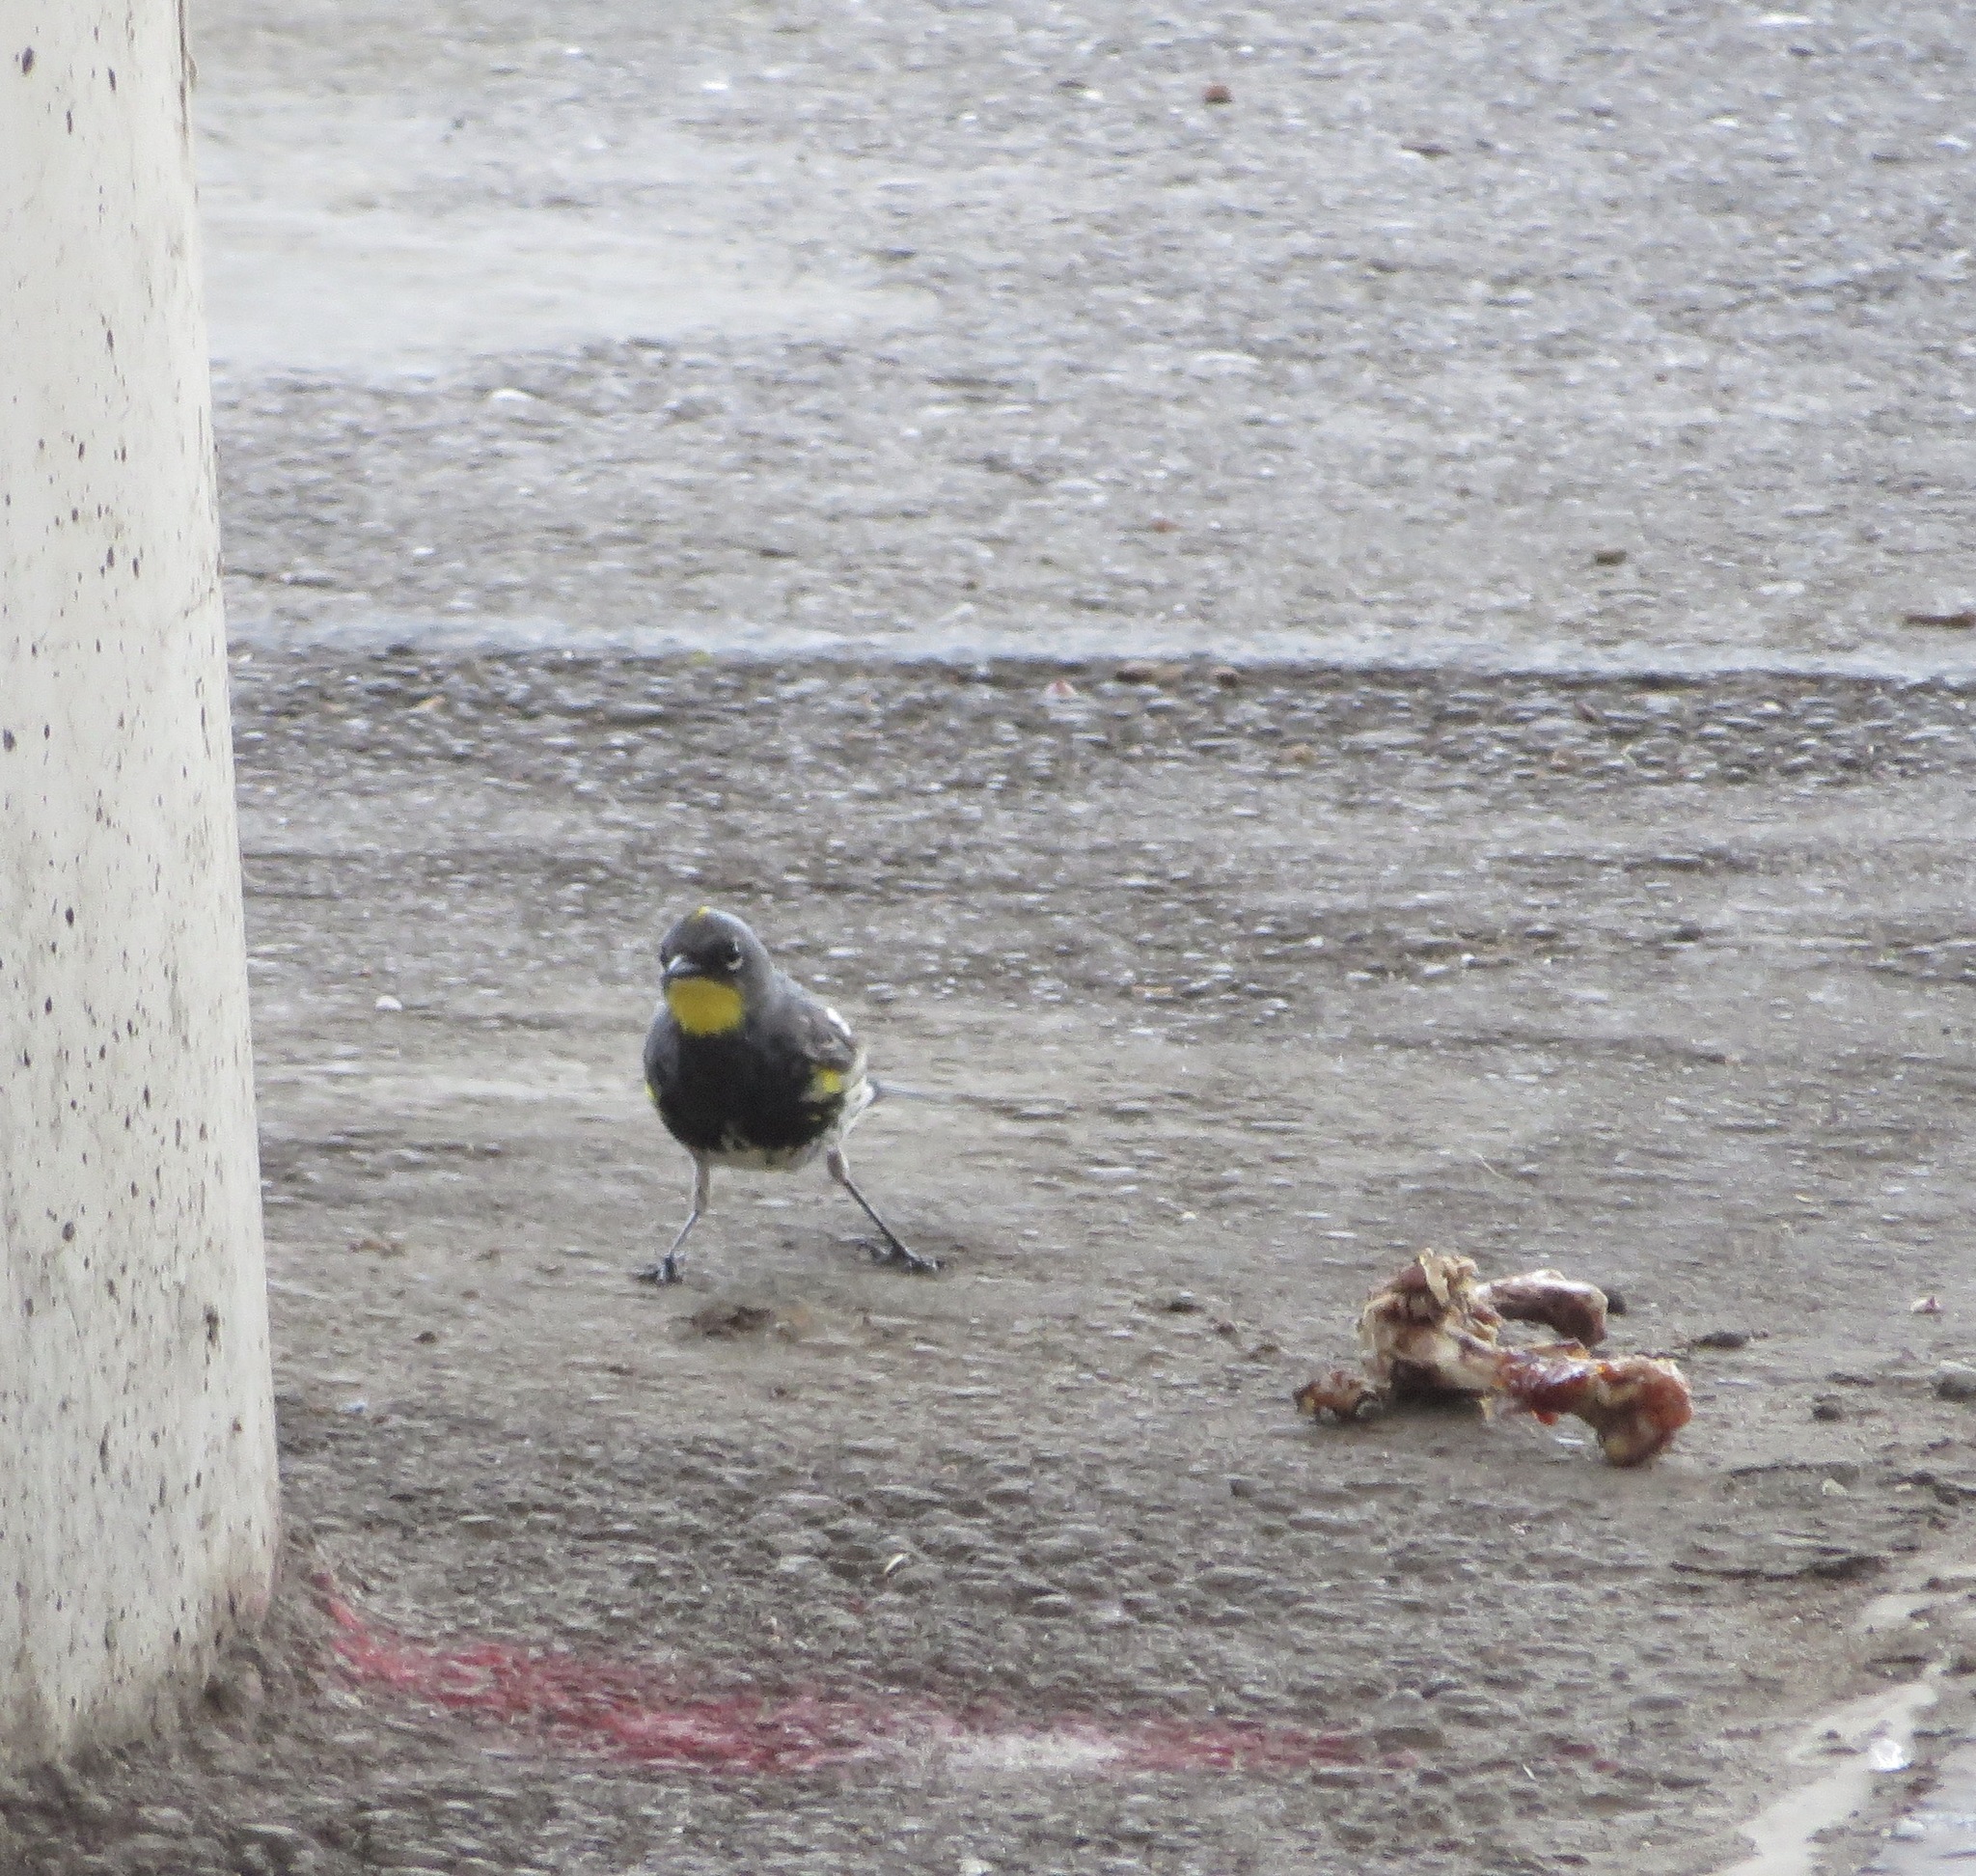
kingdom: Animalia
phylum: Chordata
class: Aves
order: Passeriformes
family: Parulidae
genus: Setophaga
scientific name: Setophaga auduboni
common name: Audubon's warbler
